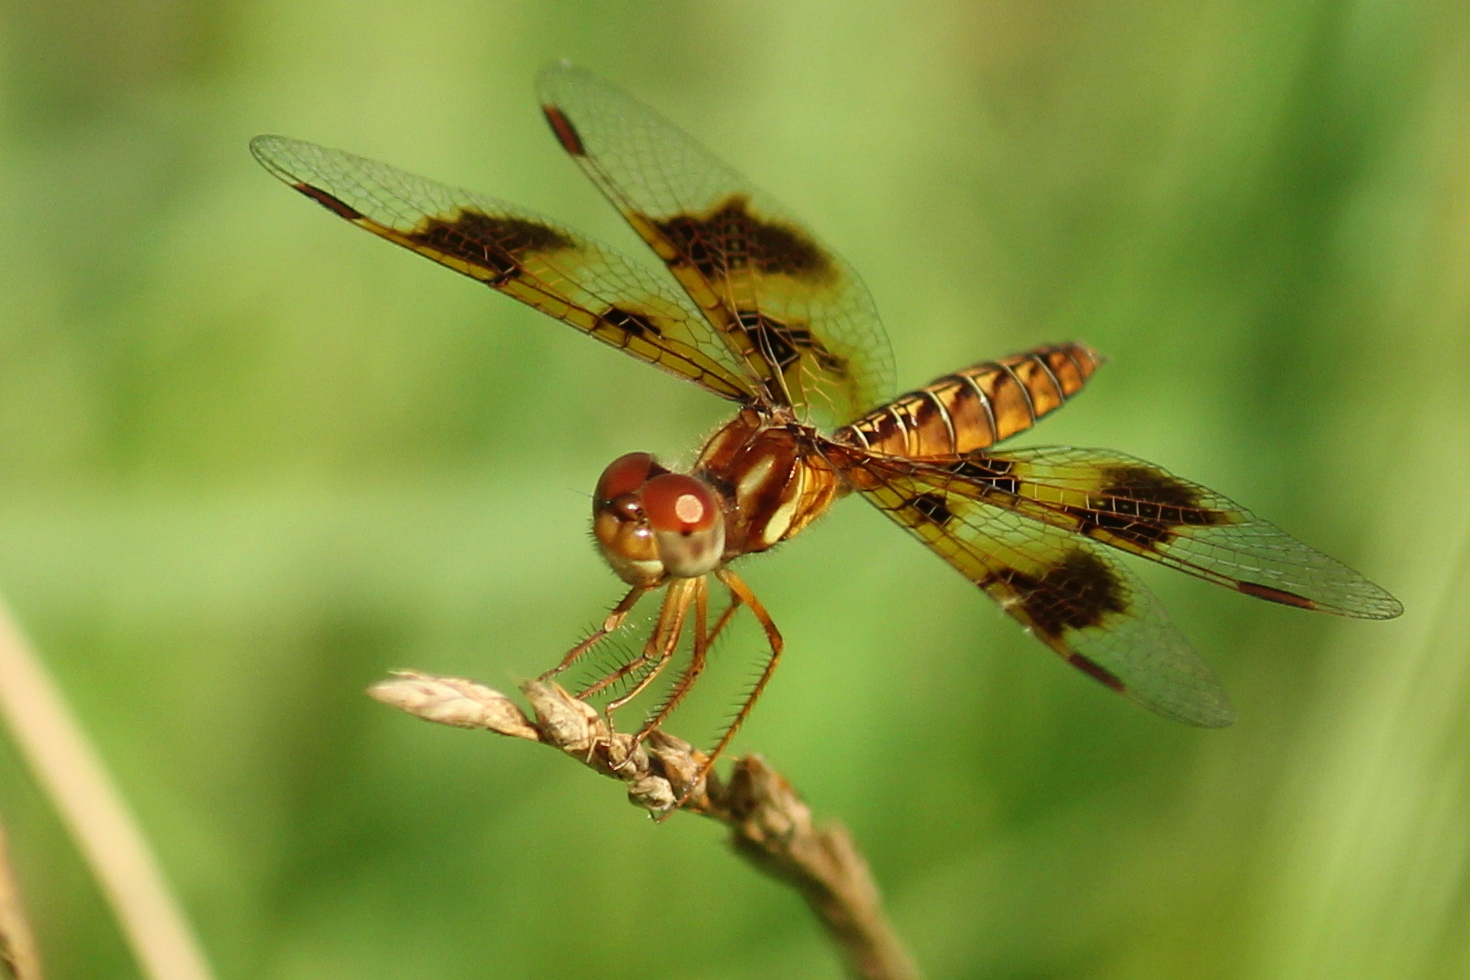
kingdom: Animalia
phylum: Arthropoda
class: Insecta
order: Odonata
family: Libellulidae
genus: Perithemis
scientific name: Perithemis tenera
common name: Eastern amberwing
